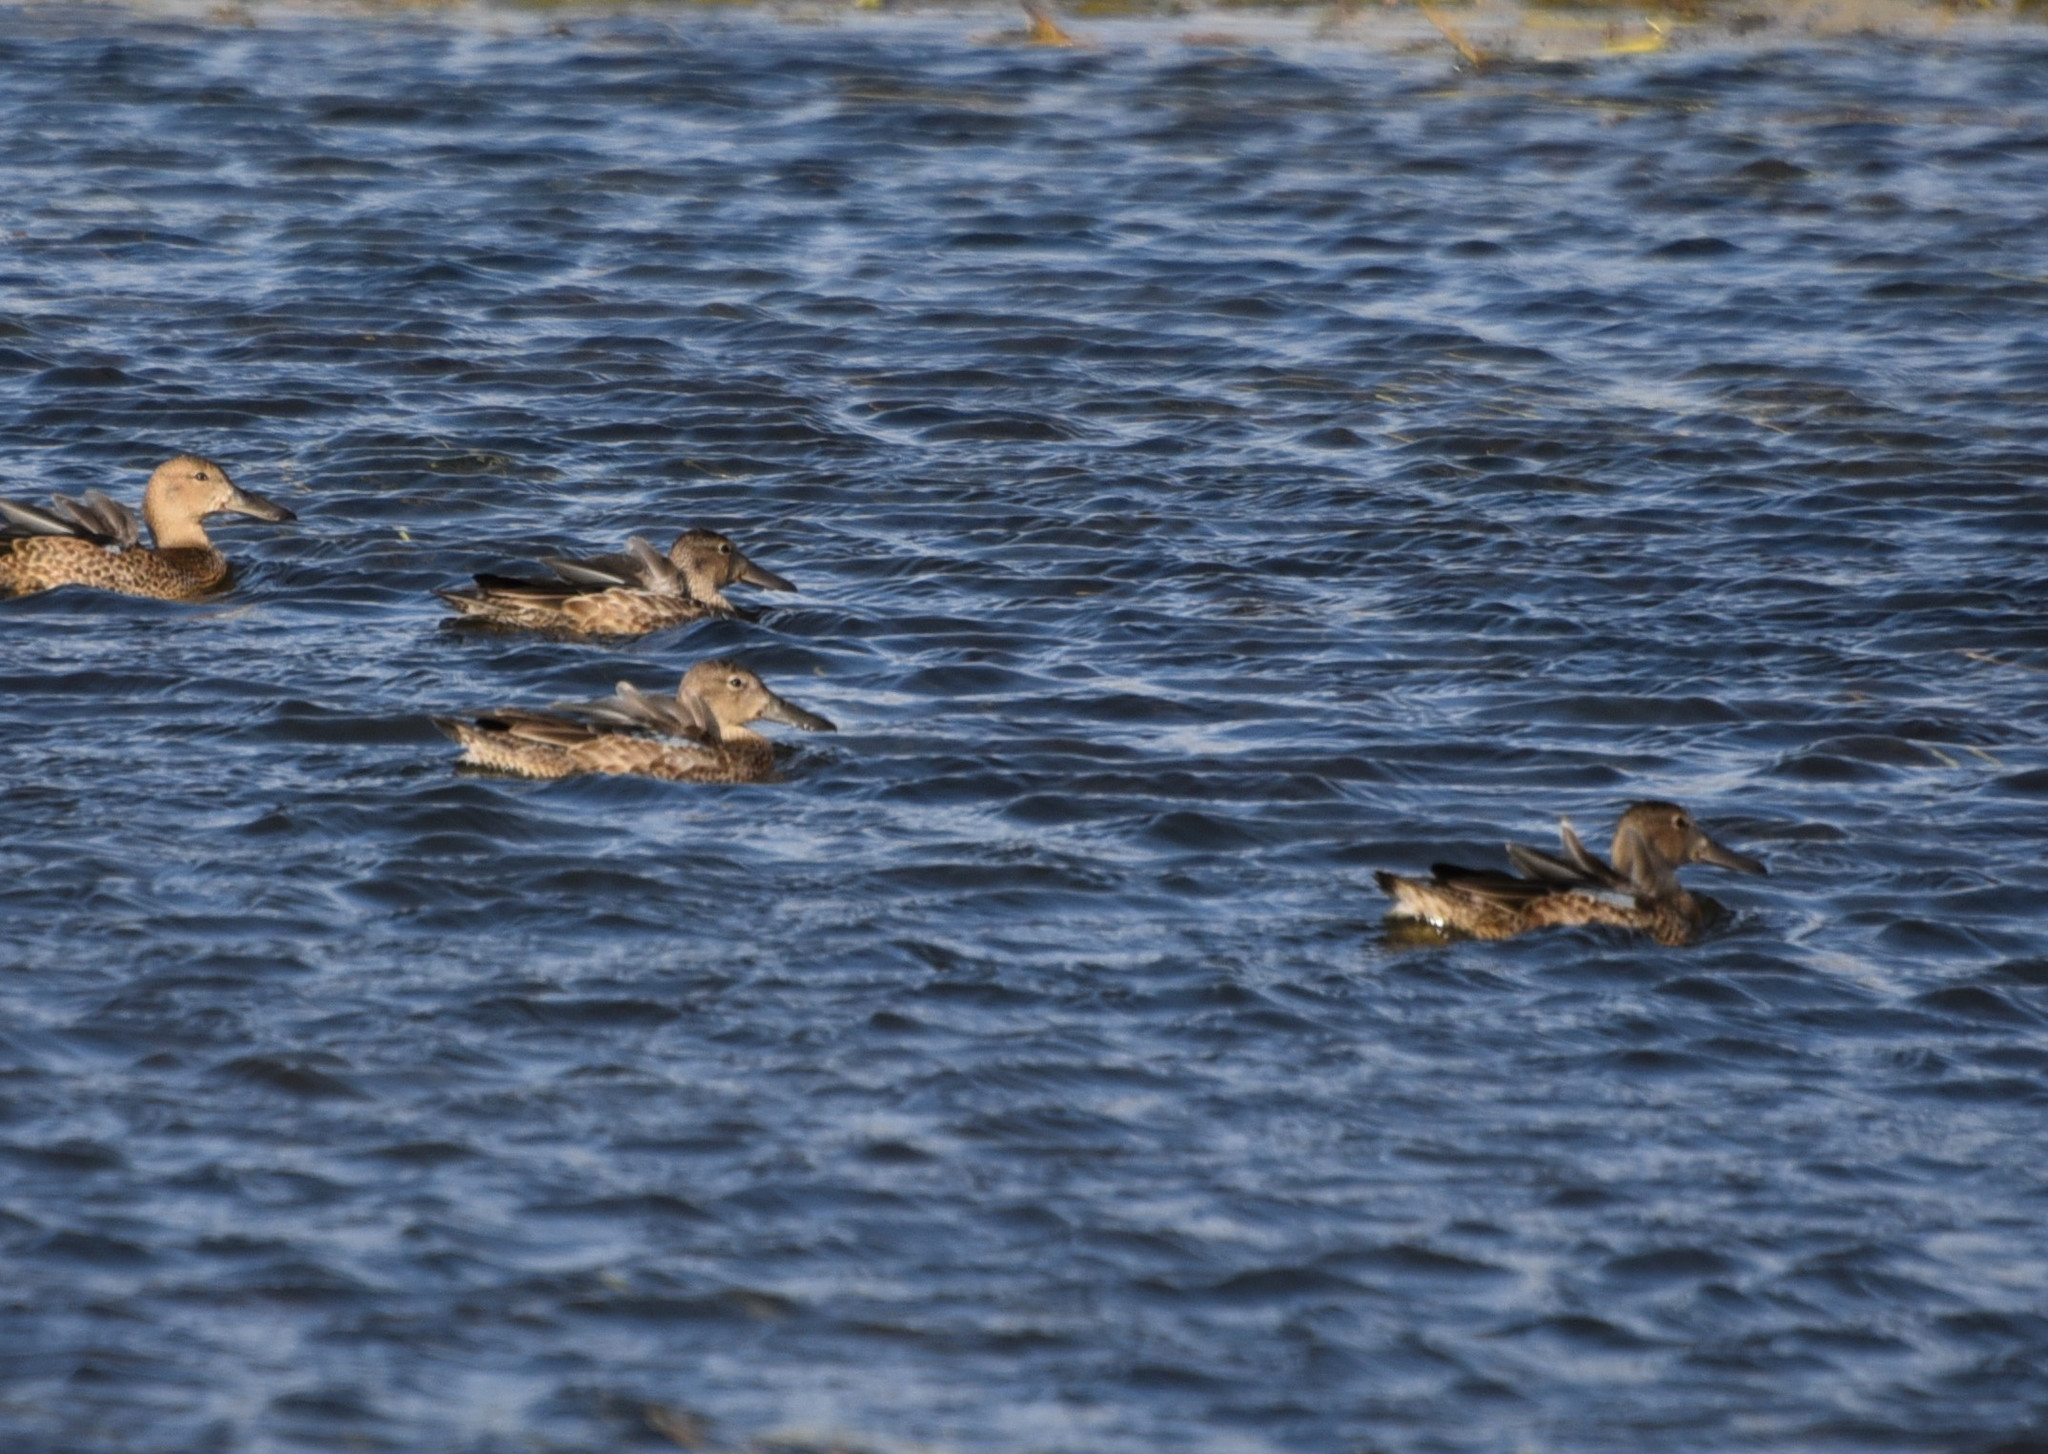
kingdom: Animalia
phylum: Chordata
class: Aves
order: Anseriformes
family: Anatidae
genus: Spatula
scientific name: Spatula clypeata
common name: Northern shoveler
